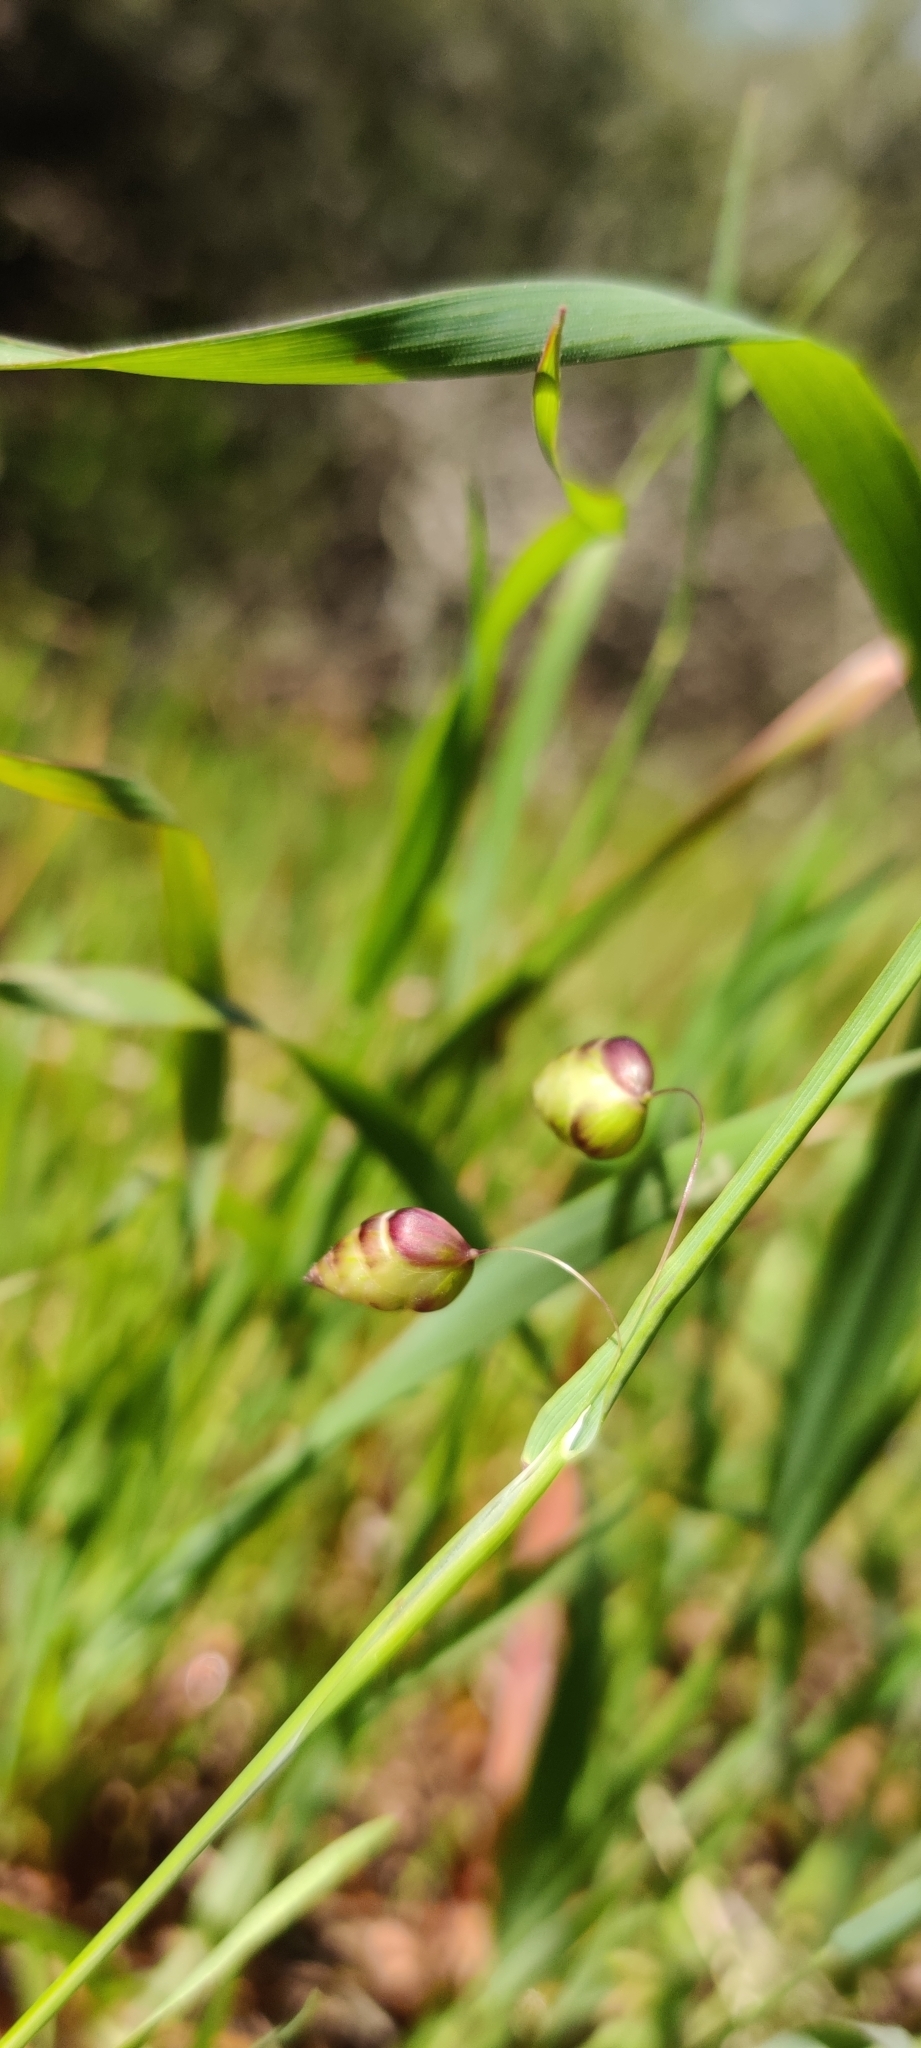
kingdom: Plantae
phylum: Tracheophyta
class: Liliopsida
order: Poales
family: Poaceae
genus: Briza
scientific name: Briza maxima
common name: Big quakinggrass
